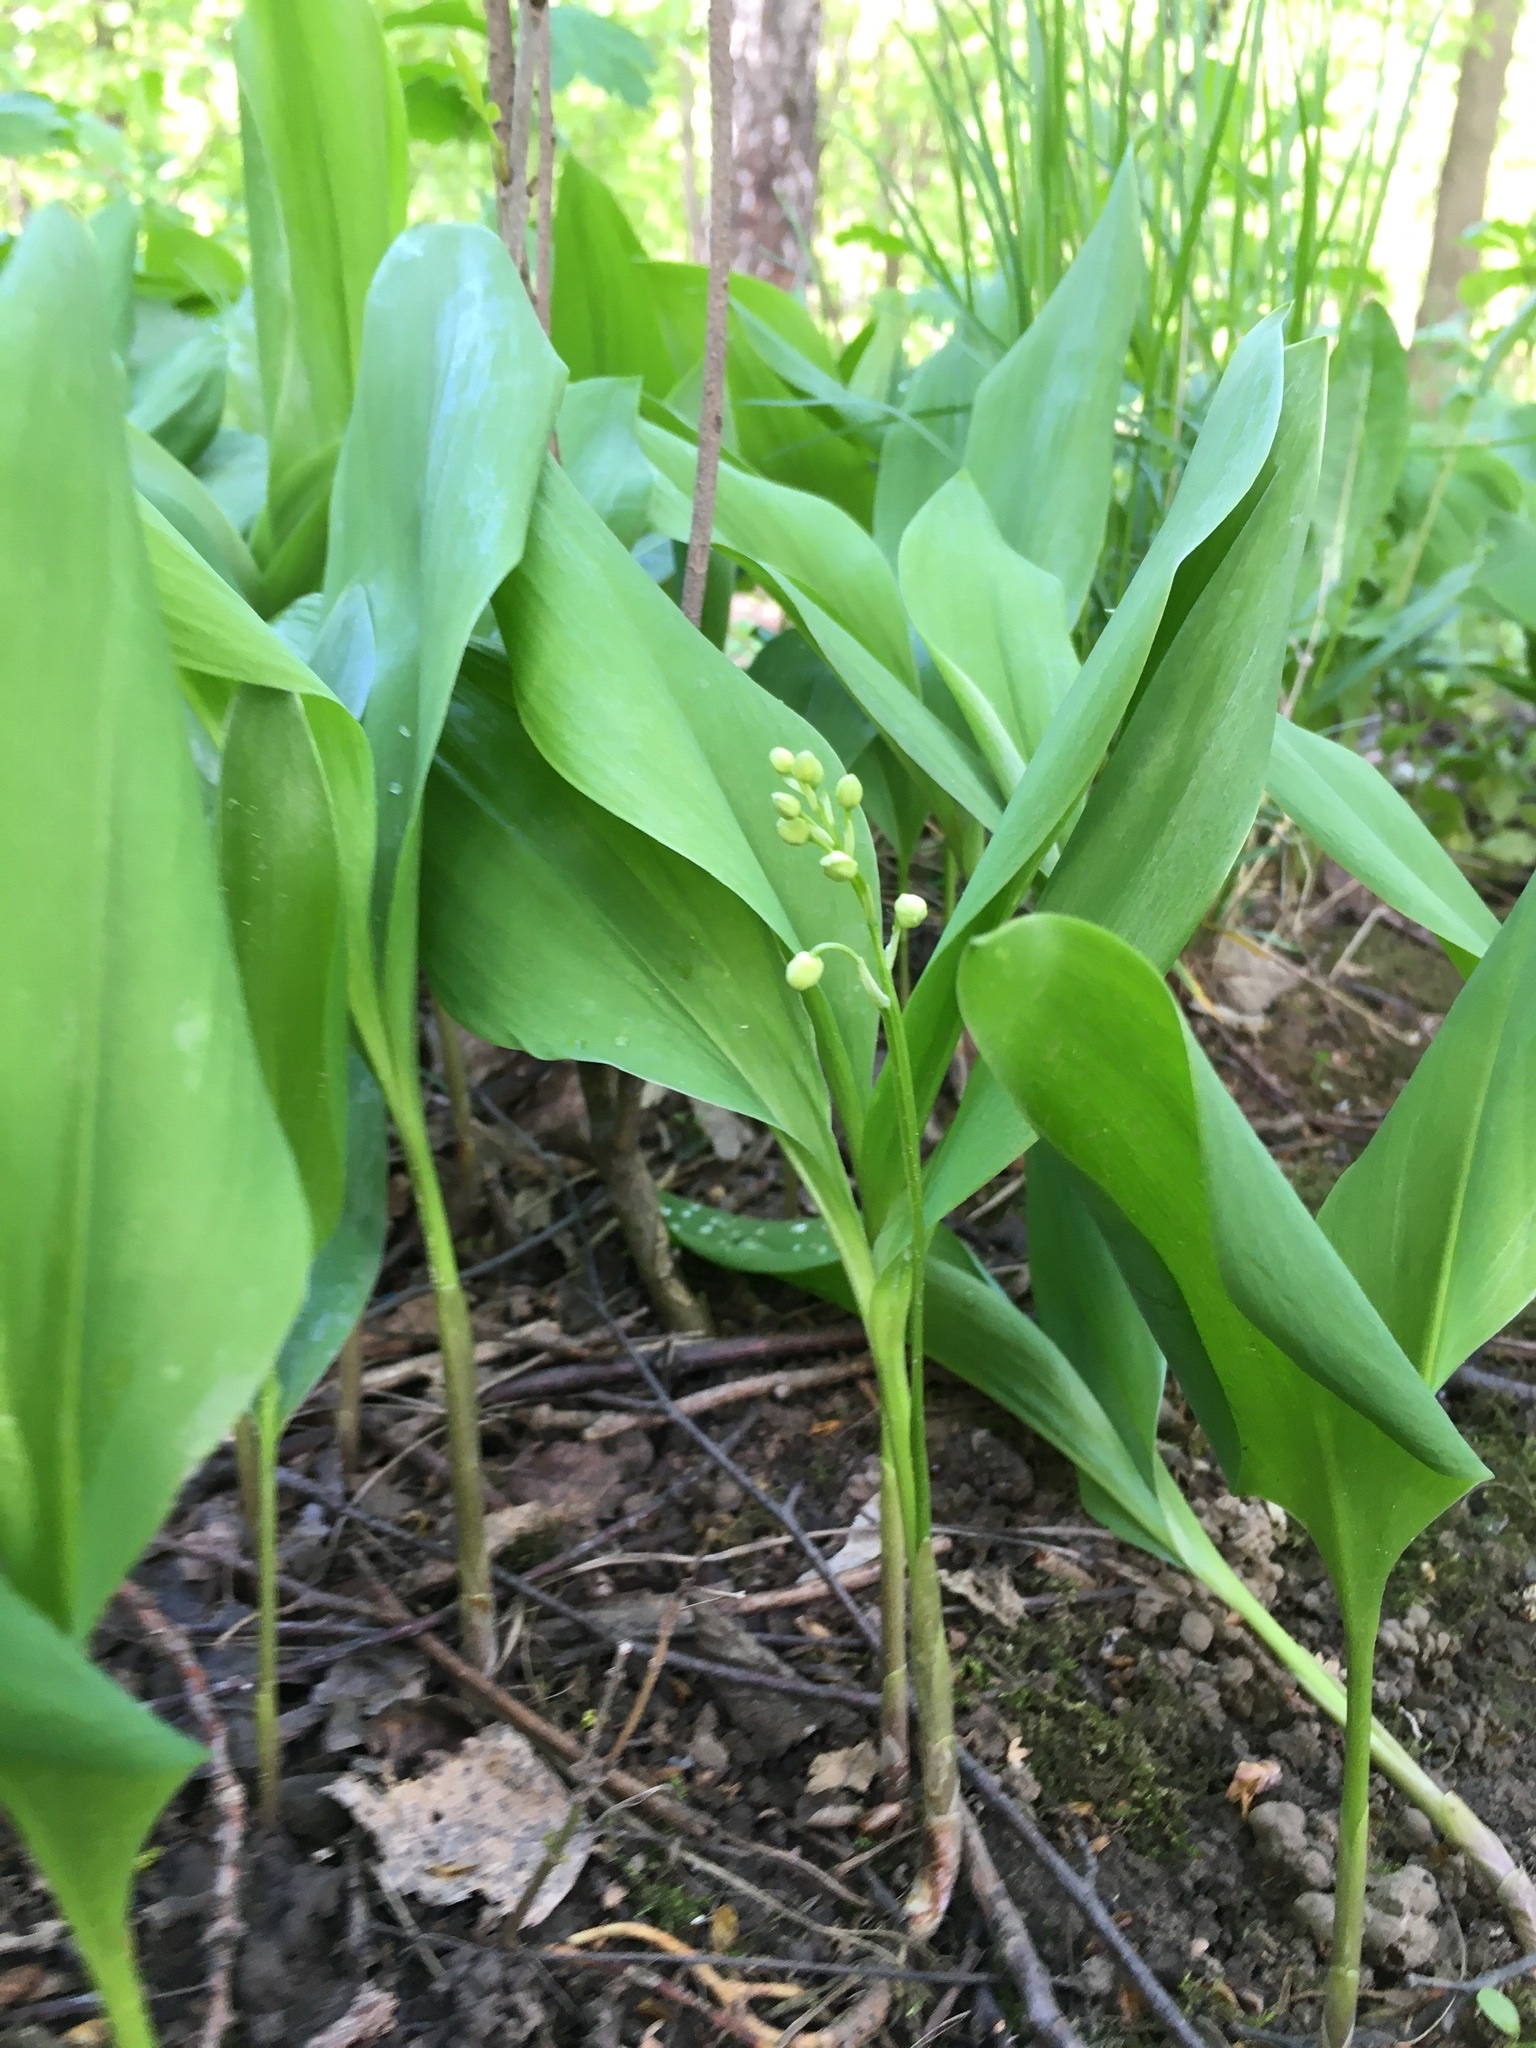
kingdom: Plantae
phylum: Tracheophyta
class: Liliopsida
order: Asparagales
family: Asparagaceae
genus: Convallaria
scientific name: Convallaria majalis
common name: Lily-of-the-valley
